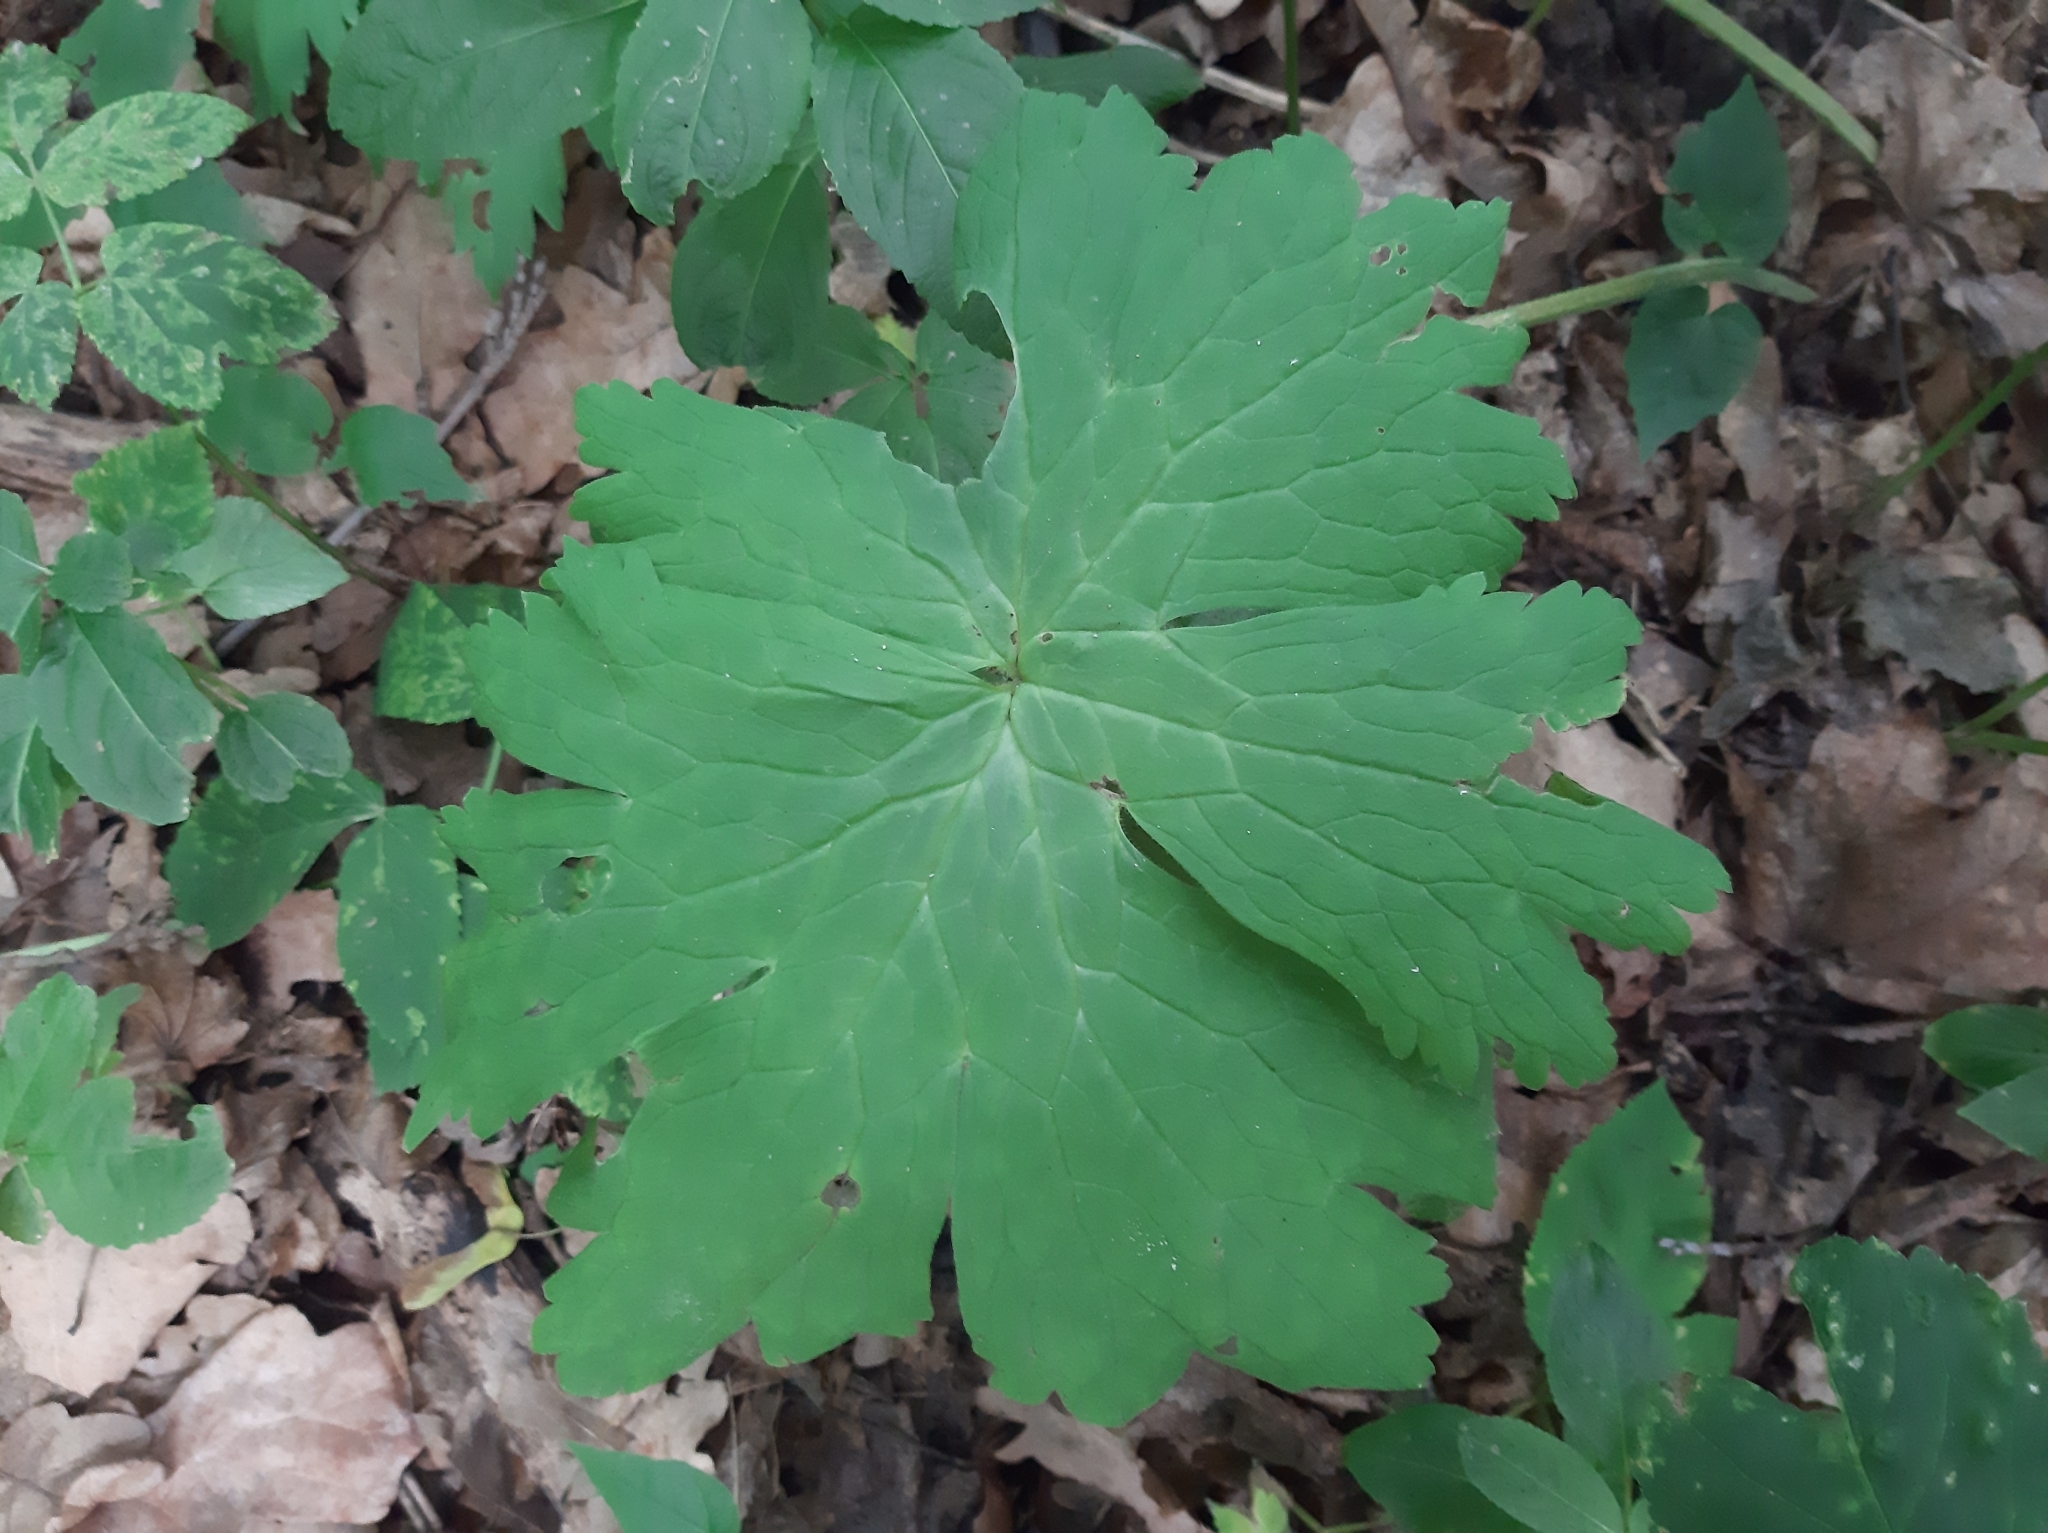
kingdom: Plantae
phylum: Tracheophyta
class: Magnoliopsida
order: Ranunculales
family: Ranunculaceae
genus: Aconitum
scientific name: Aconitum septentrionale
